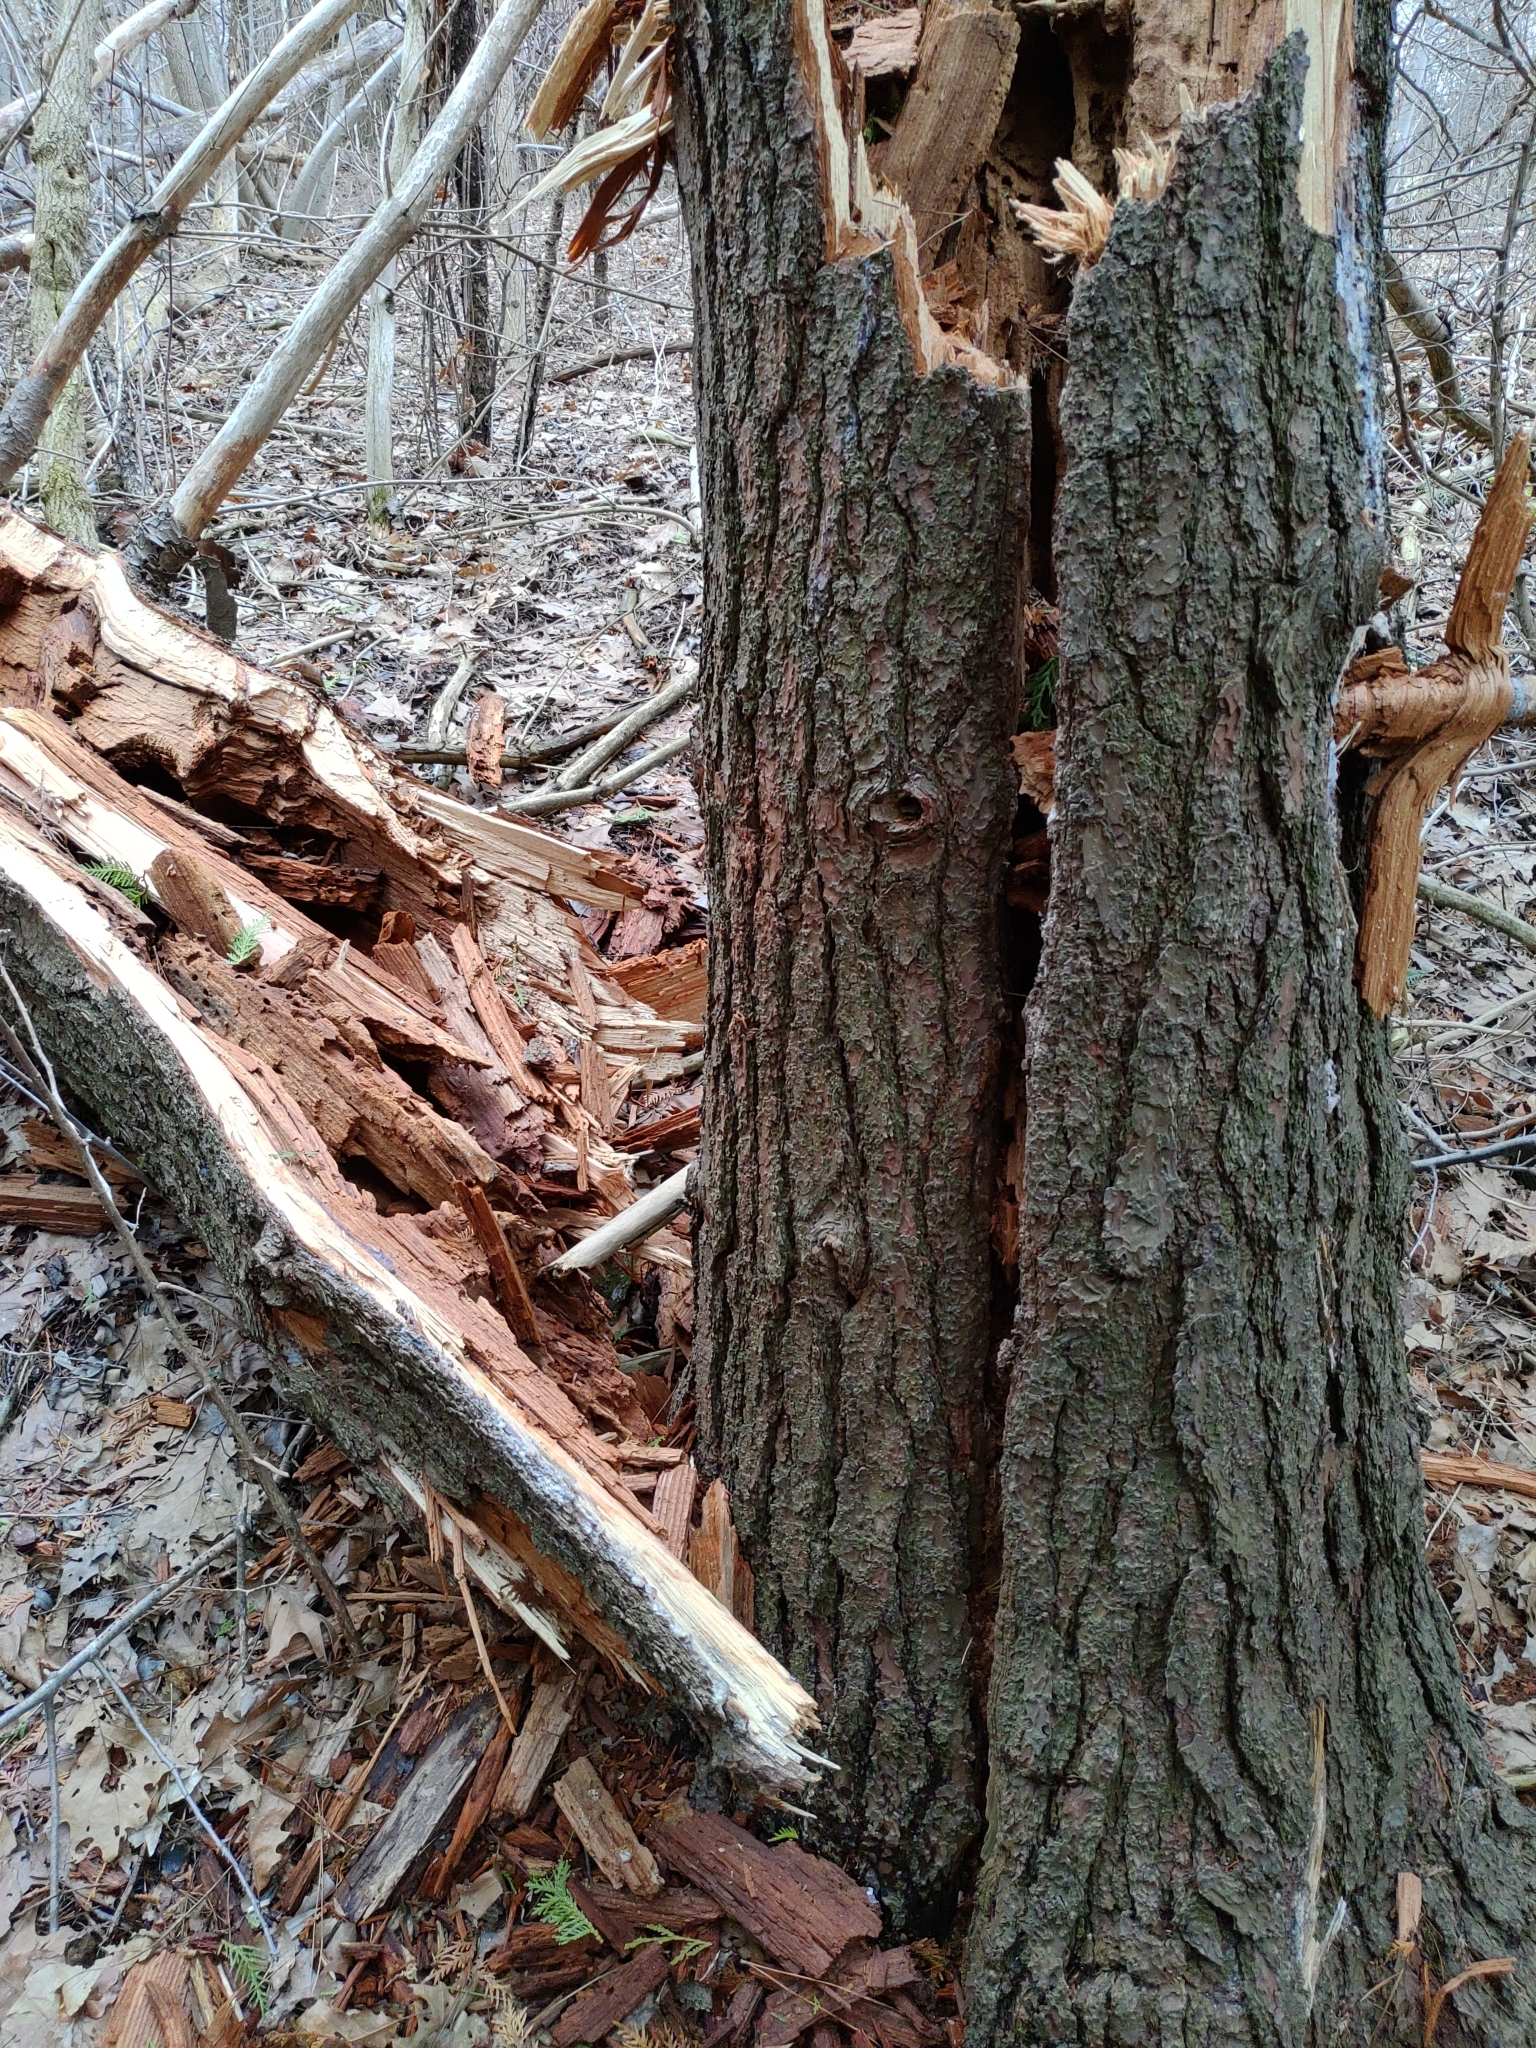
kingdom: Plantae
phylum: Tracheophyta
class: Pinopsida
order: Pinales
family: Pinaceae
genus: Pinus
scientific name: Pinus strobus
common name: Weymouth pine
